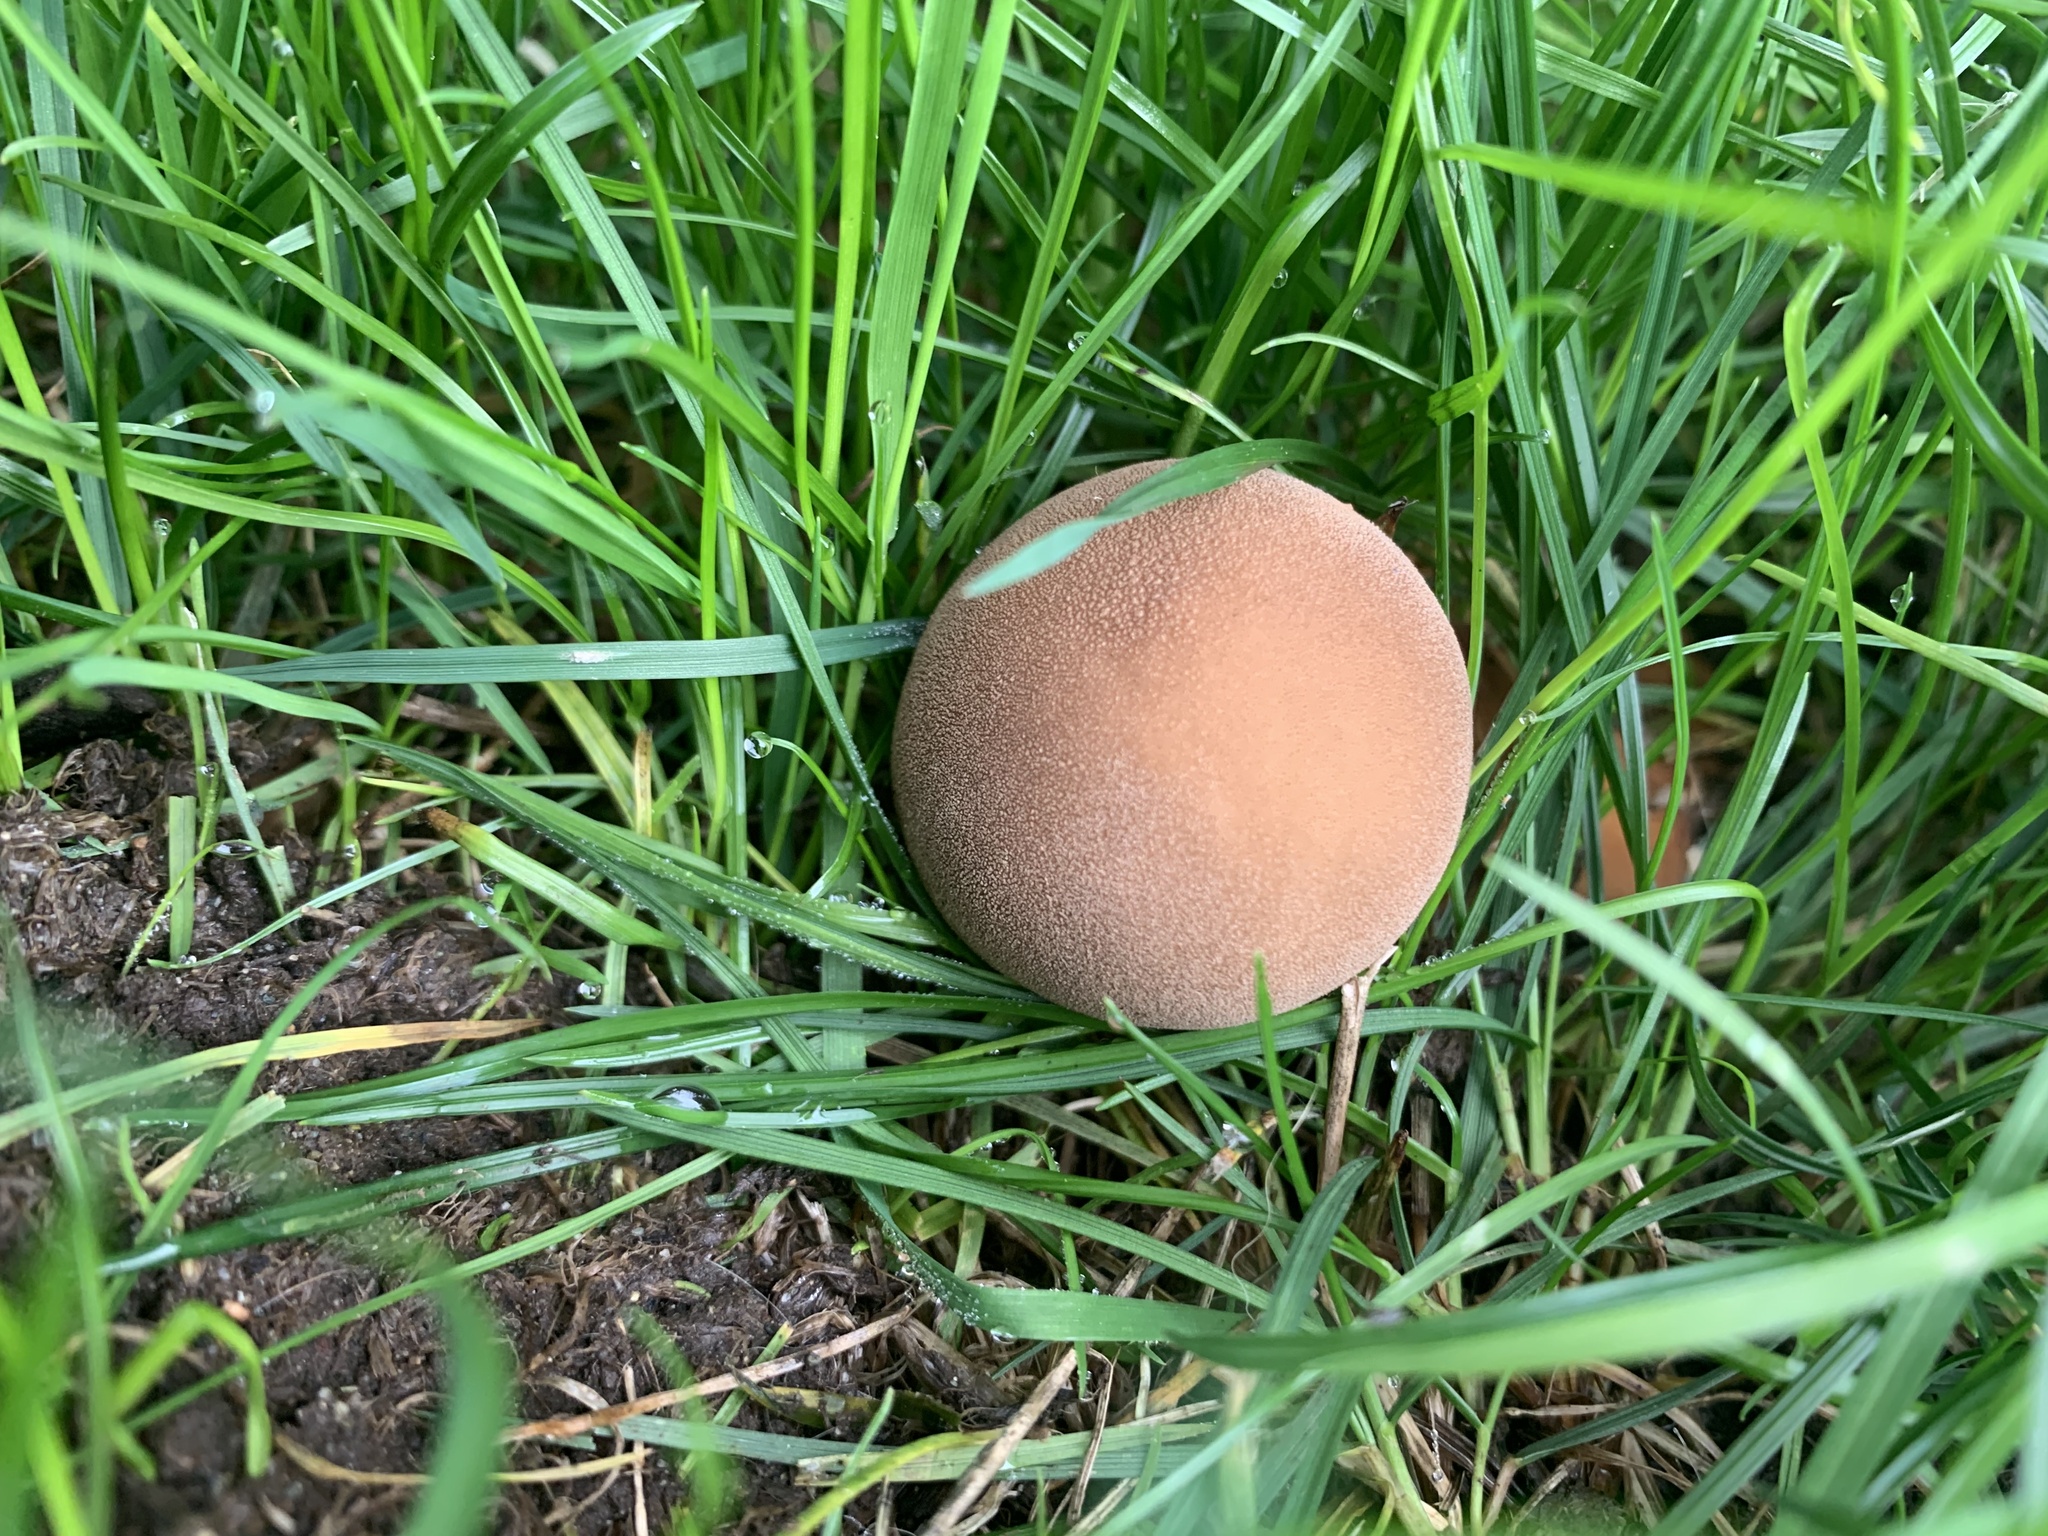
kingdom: Fungi
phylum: Basidiomycota
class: Agaricomycetes
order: Agaricales
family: Lycoperdaceae
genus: Apioperdon
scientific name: Apioperdon pyriforme
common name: Pear-shaped puffball
